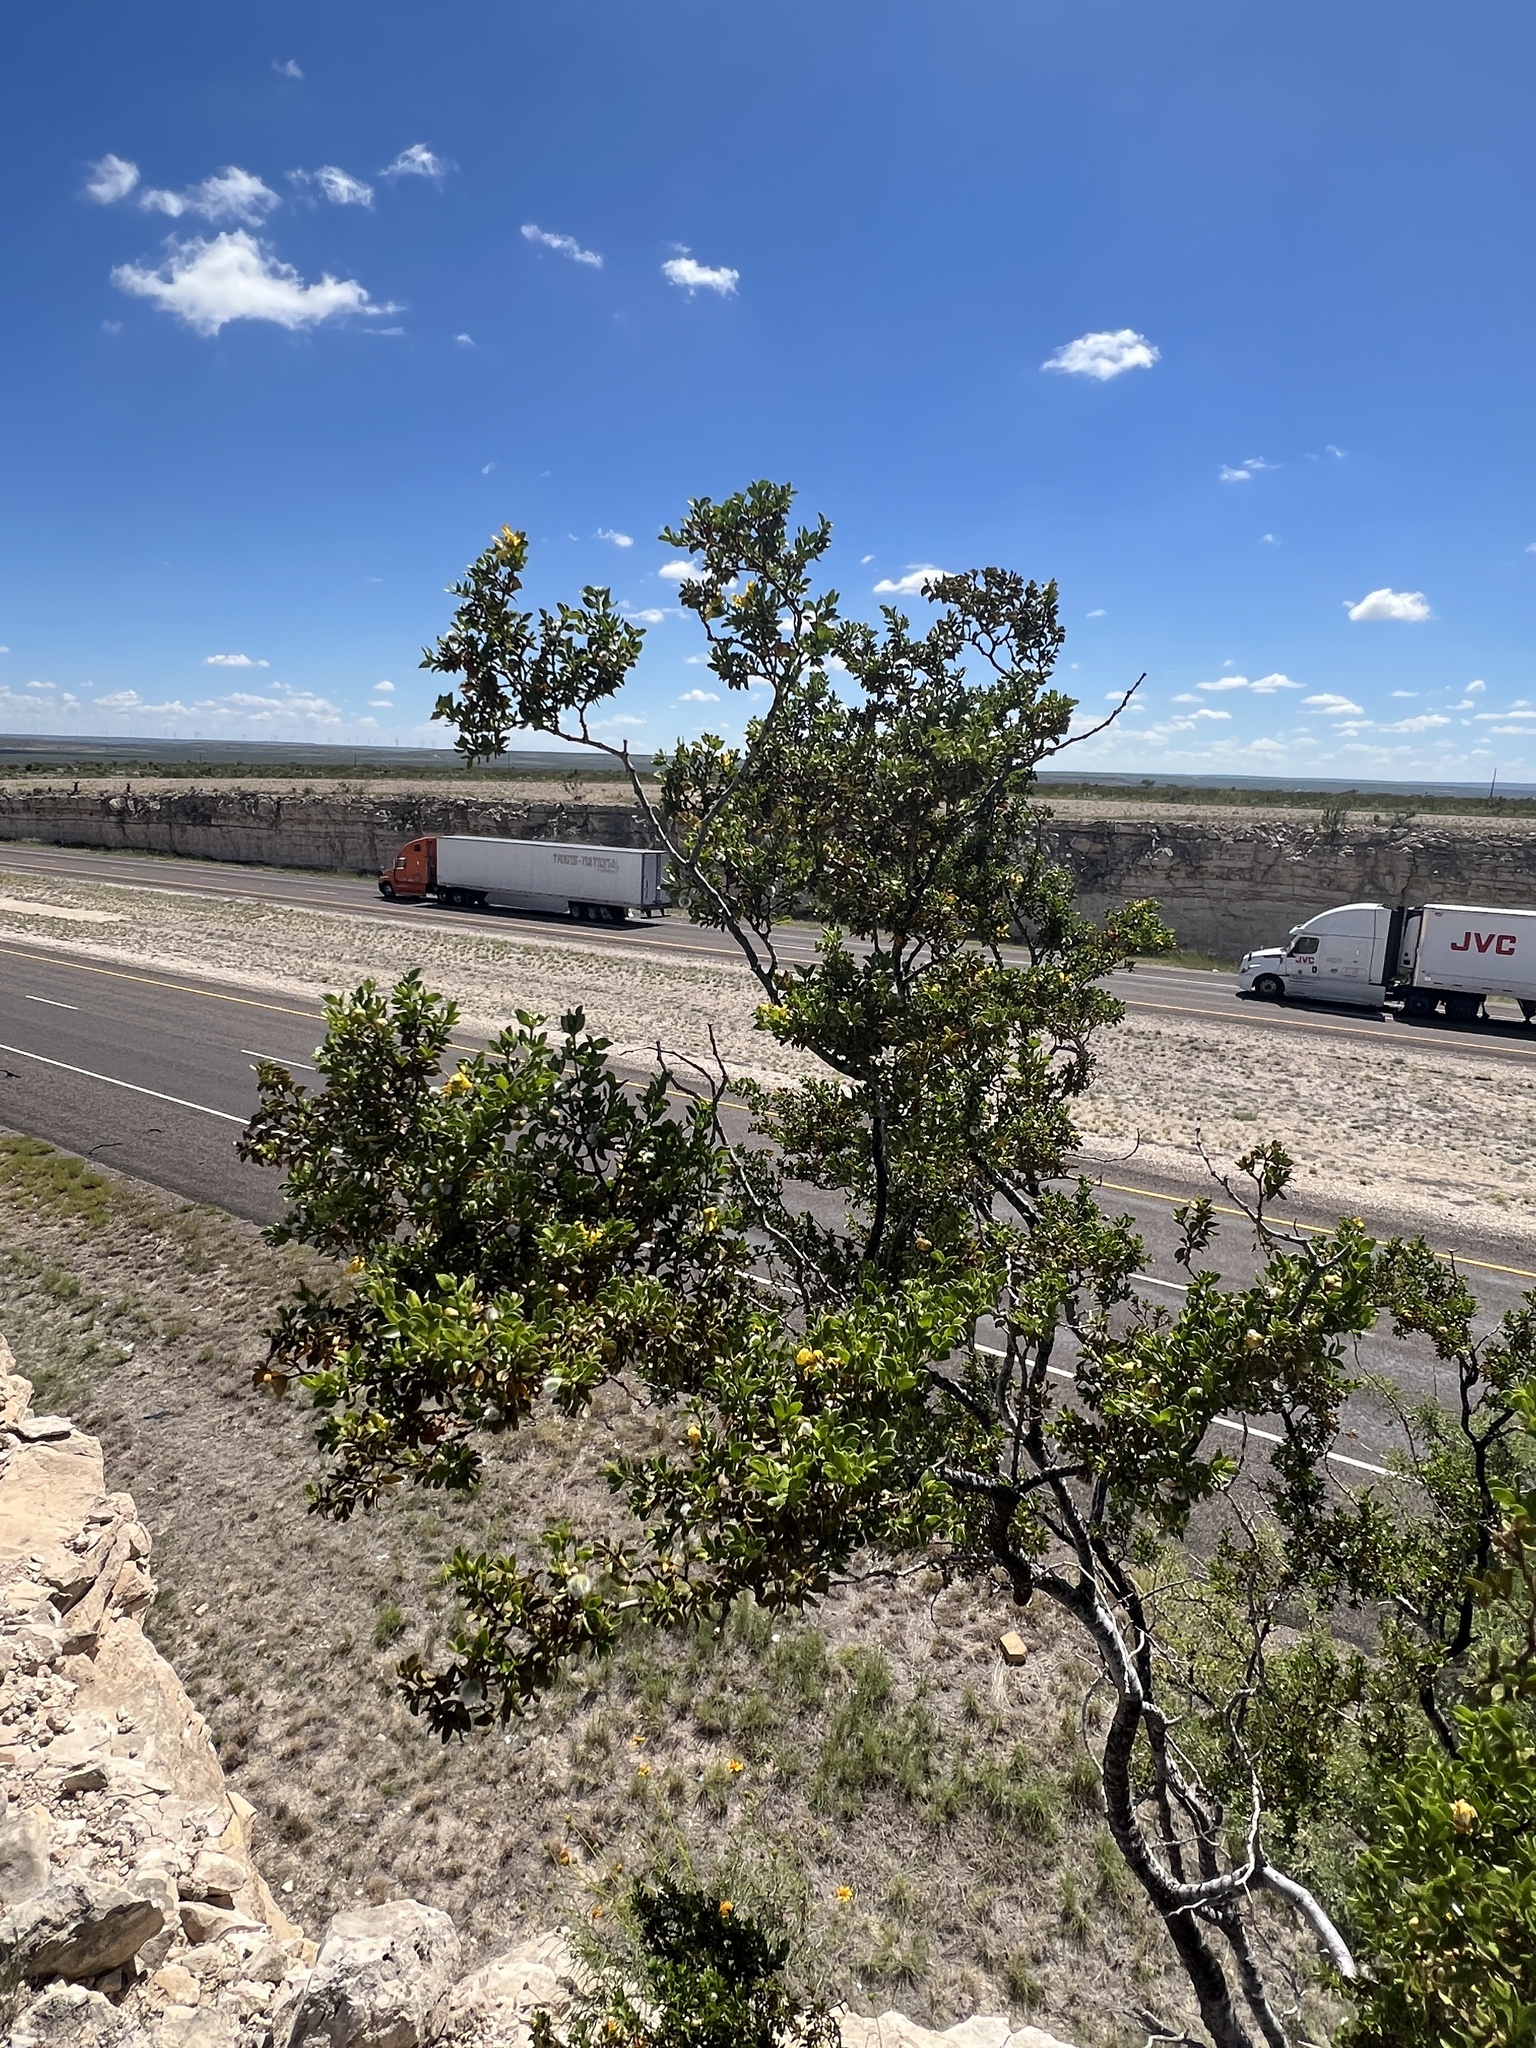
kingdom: Plantae
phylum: Tracheophyta
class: Magnoliopsida
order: Zygophyllales
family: Zygophyllaceae
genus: Larrea
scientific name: Larrea tridentata
